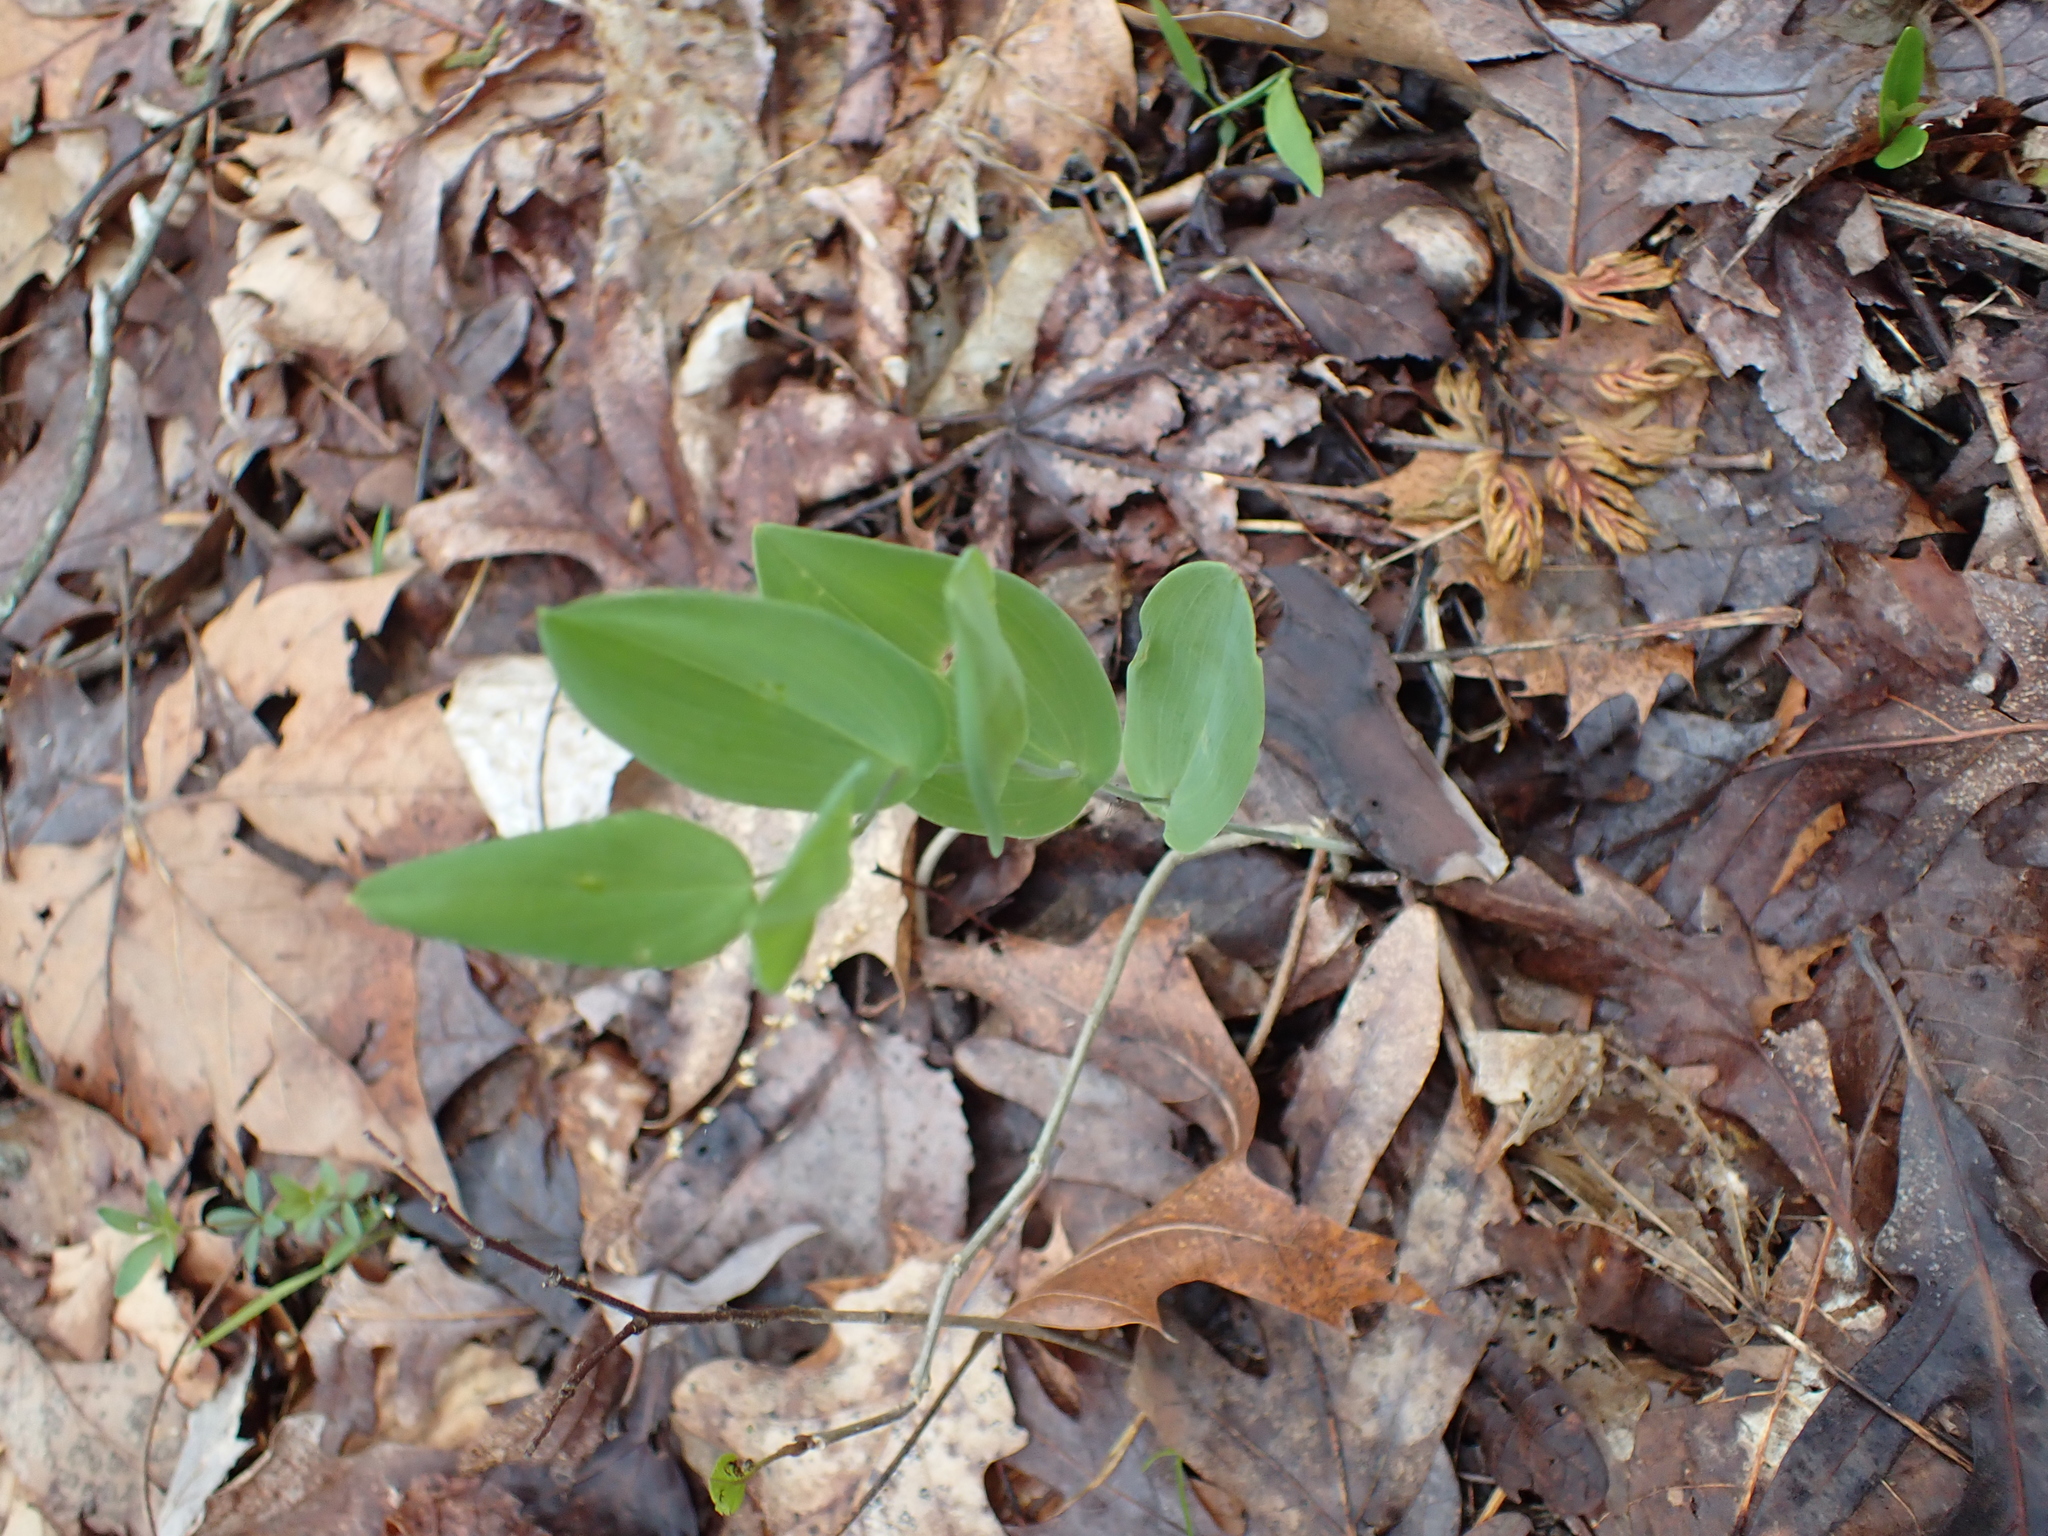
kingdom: Plantae
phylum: Tracheophyta
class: Liliopsida
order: Liliales
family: Colchicaceae
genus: Uvularia
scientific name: Uvularia perfoliata
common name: Perfoliate bellwort
